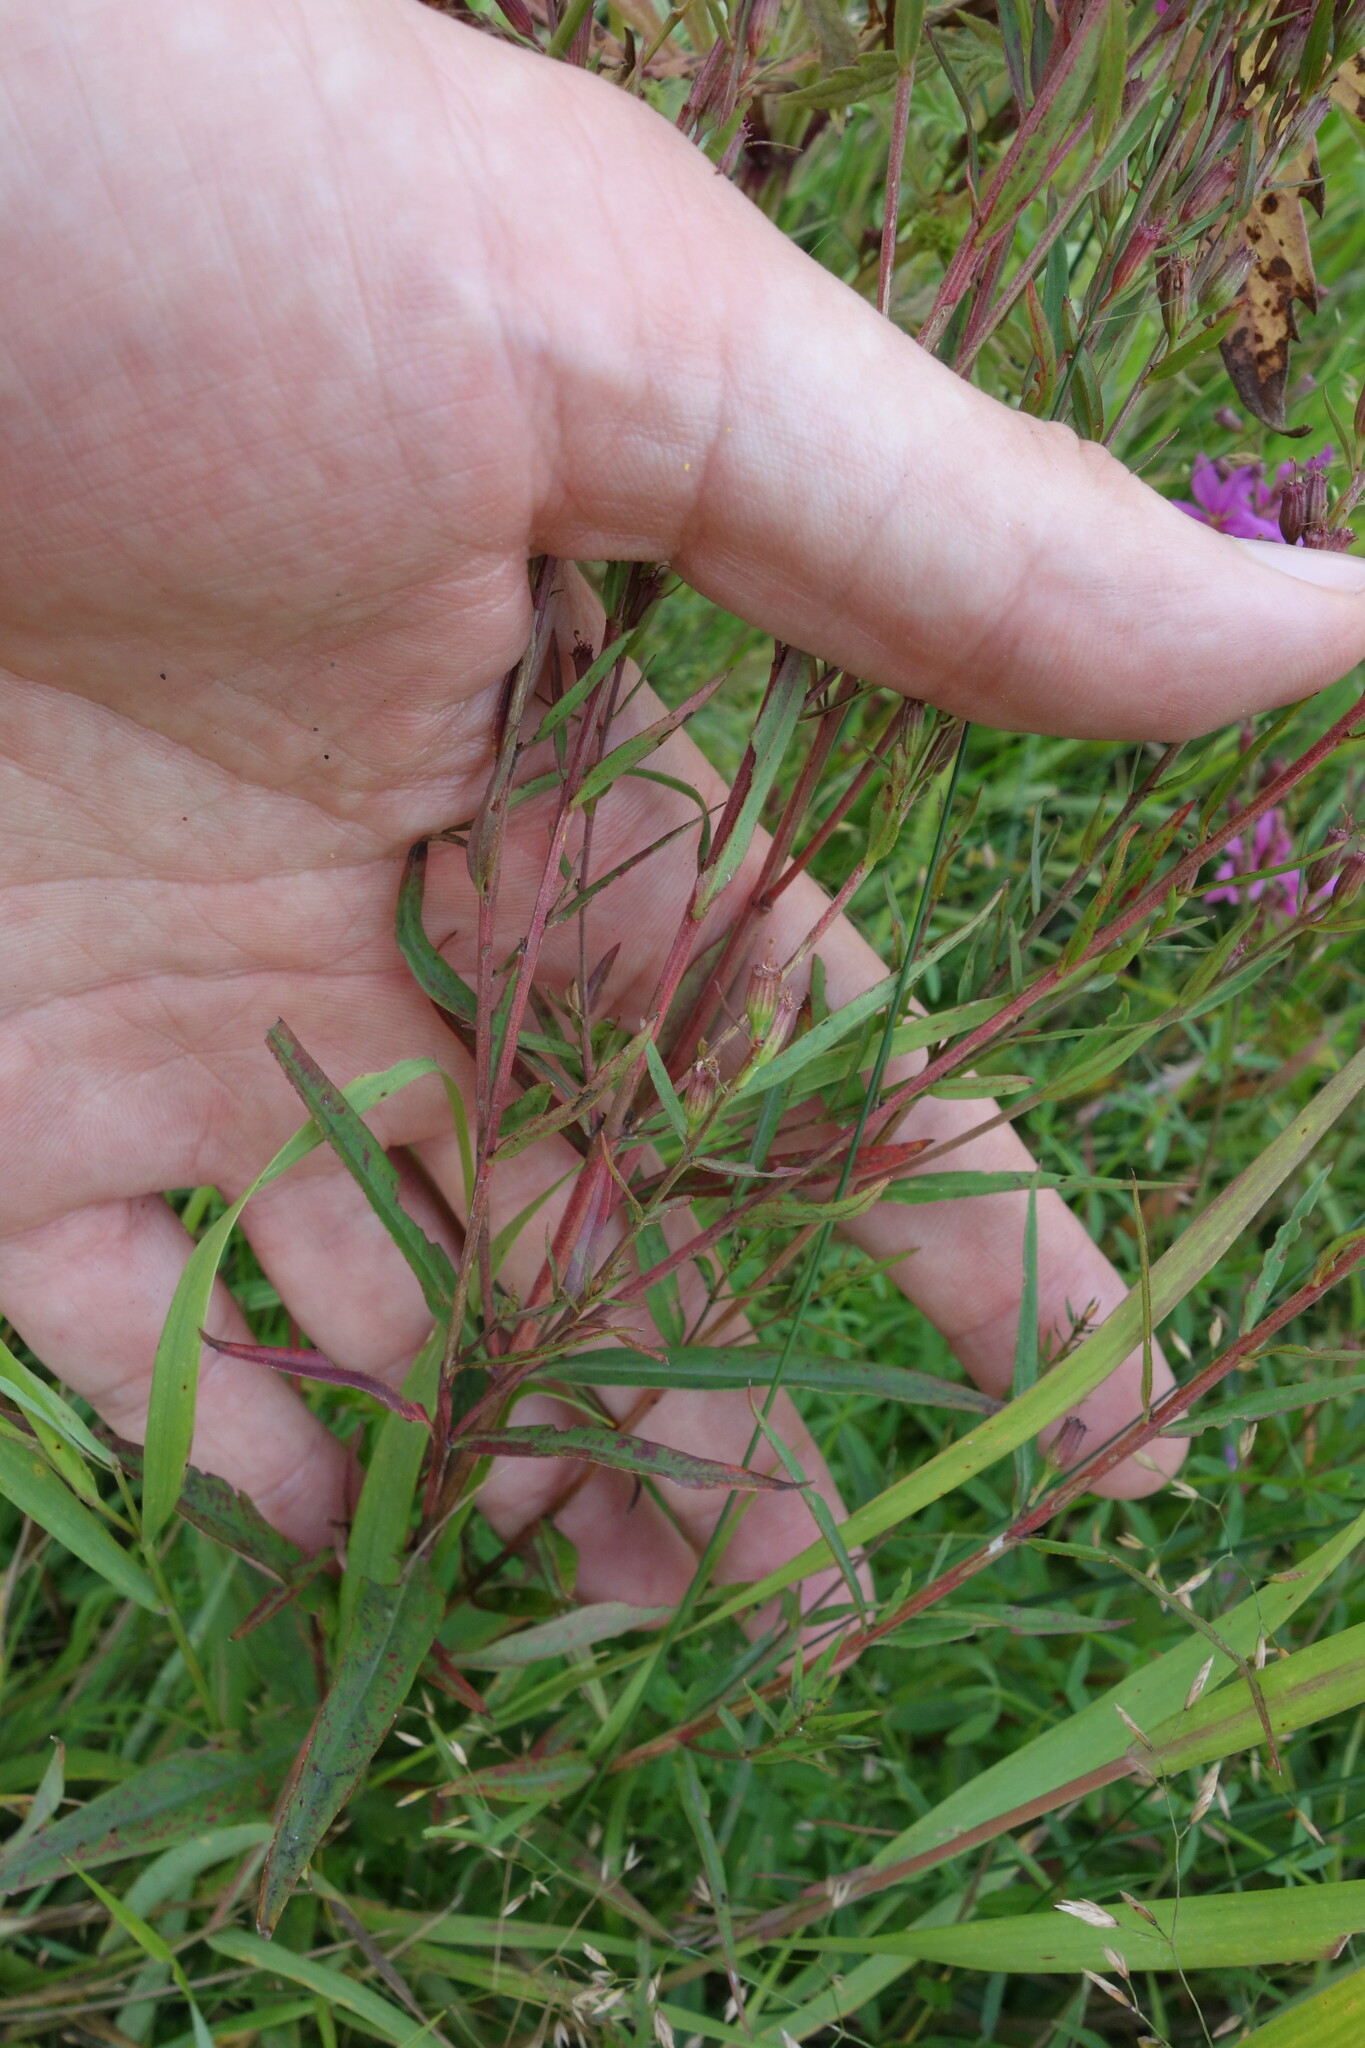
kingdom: Plantae
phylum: Tracheophyta
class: Magnoliopsida
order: Myrtales
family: Lythraceae
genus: Lythrum
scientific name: Lythrum virgatum
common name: European wand loosestrife
